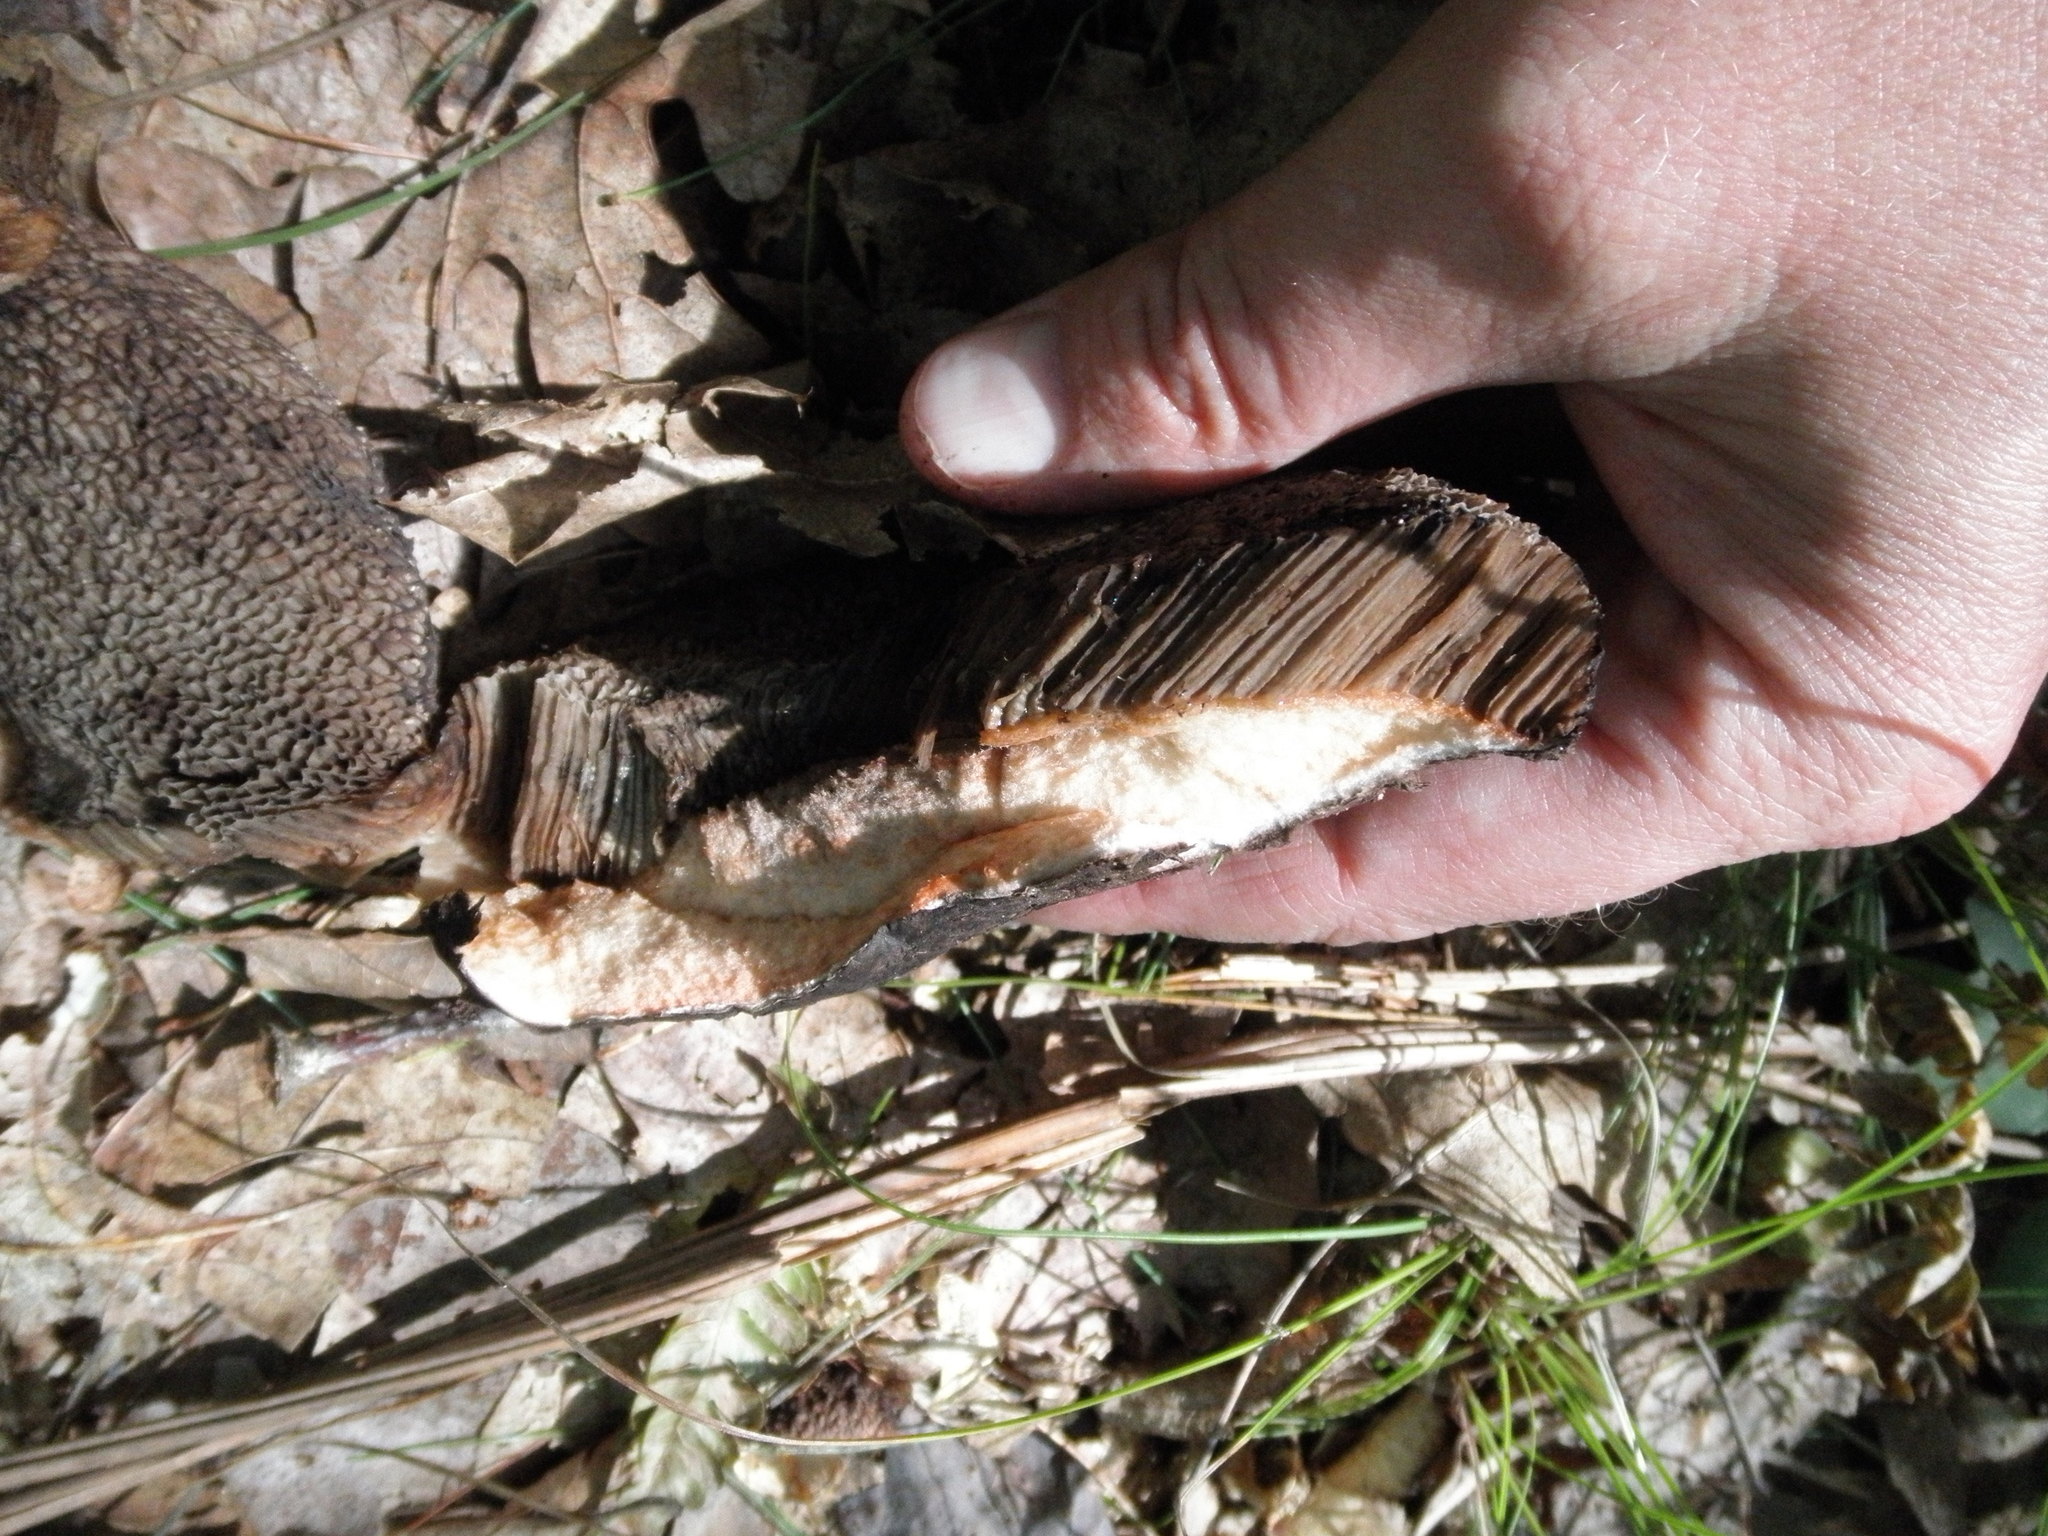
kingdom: Fungi
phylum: Basidiomycota
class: Agaricomycetes
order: Boletales
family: Boletaceae
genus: Strobilomyces
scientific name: Strobilomyces strobilaceus
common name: Old man of the woods
